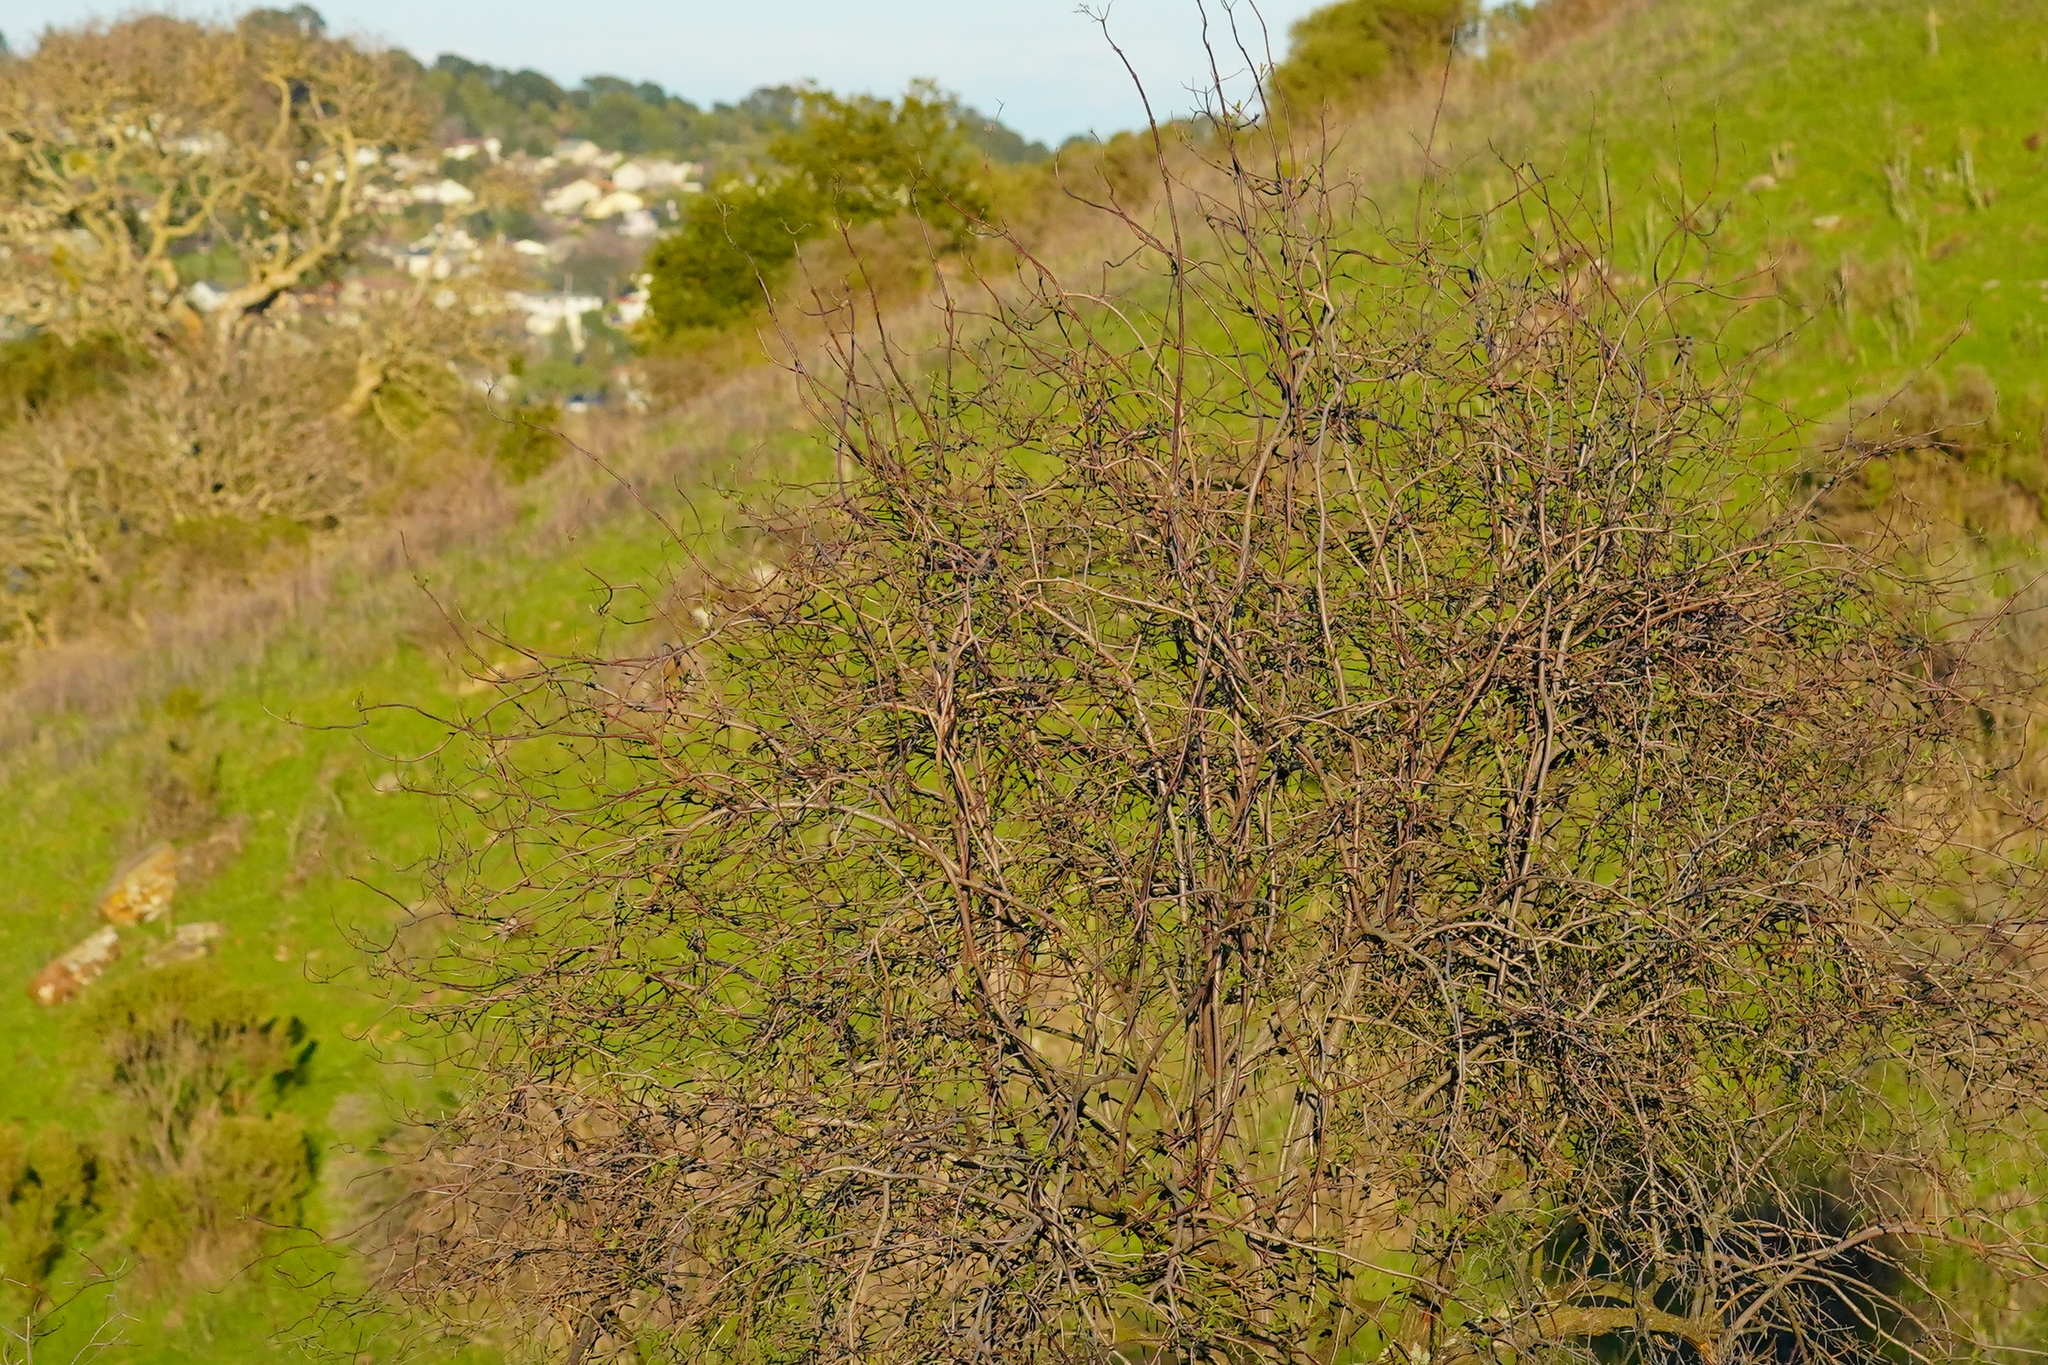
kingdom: Plantae
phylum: Tracheophyta
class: Magnoliopsida
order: Dipsacales
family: Viburnaceae
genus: Sambucus
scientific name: Sambucus cerulea
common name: Blue elder
